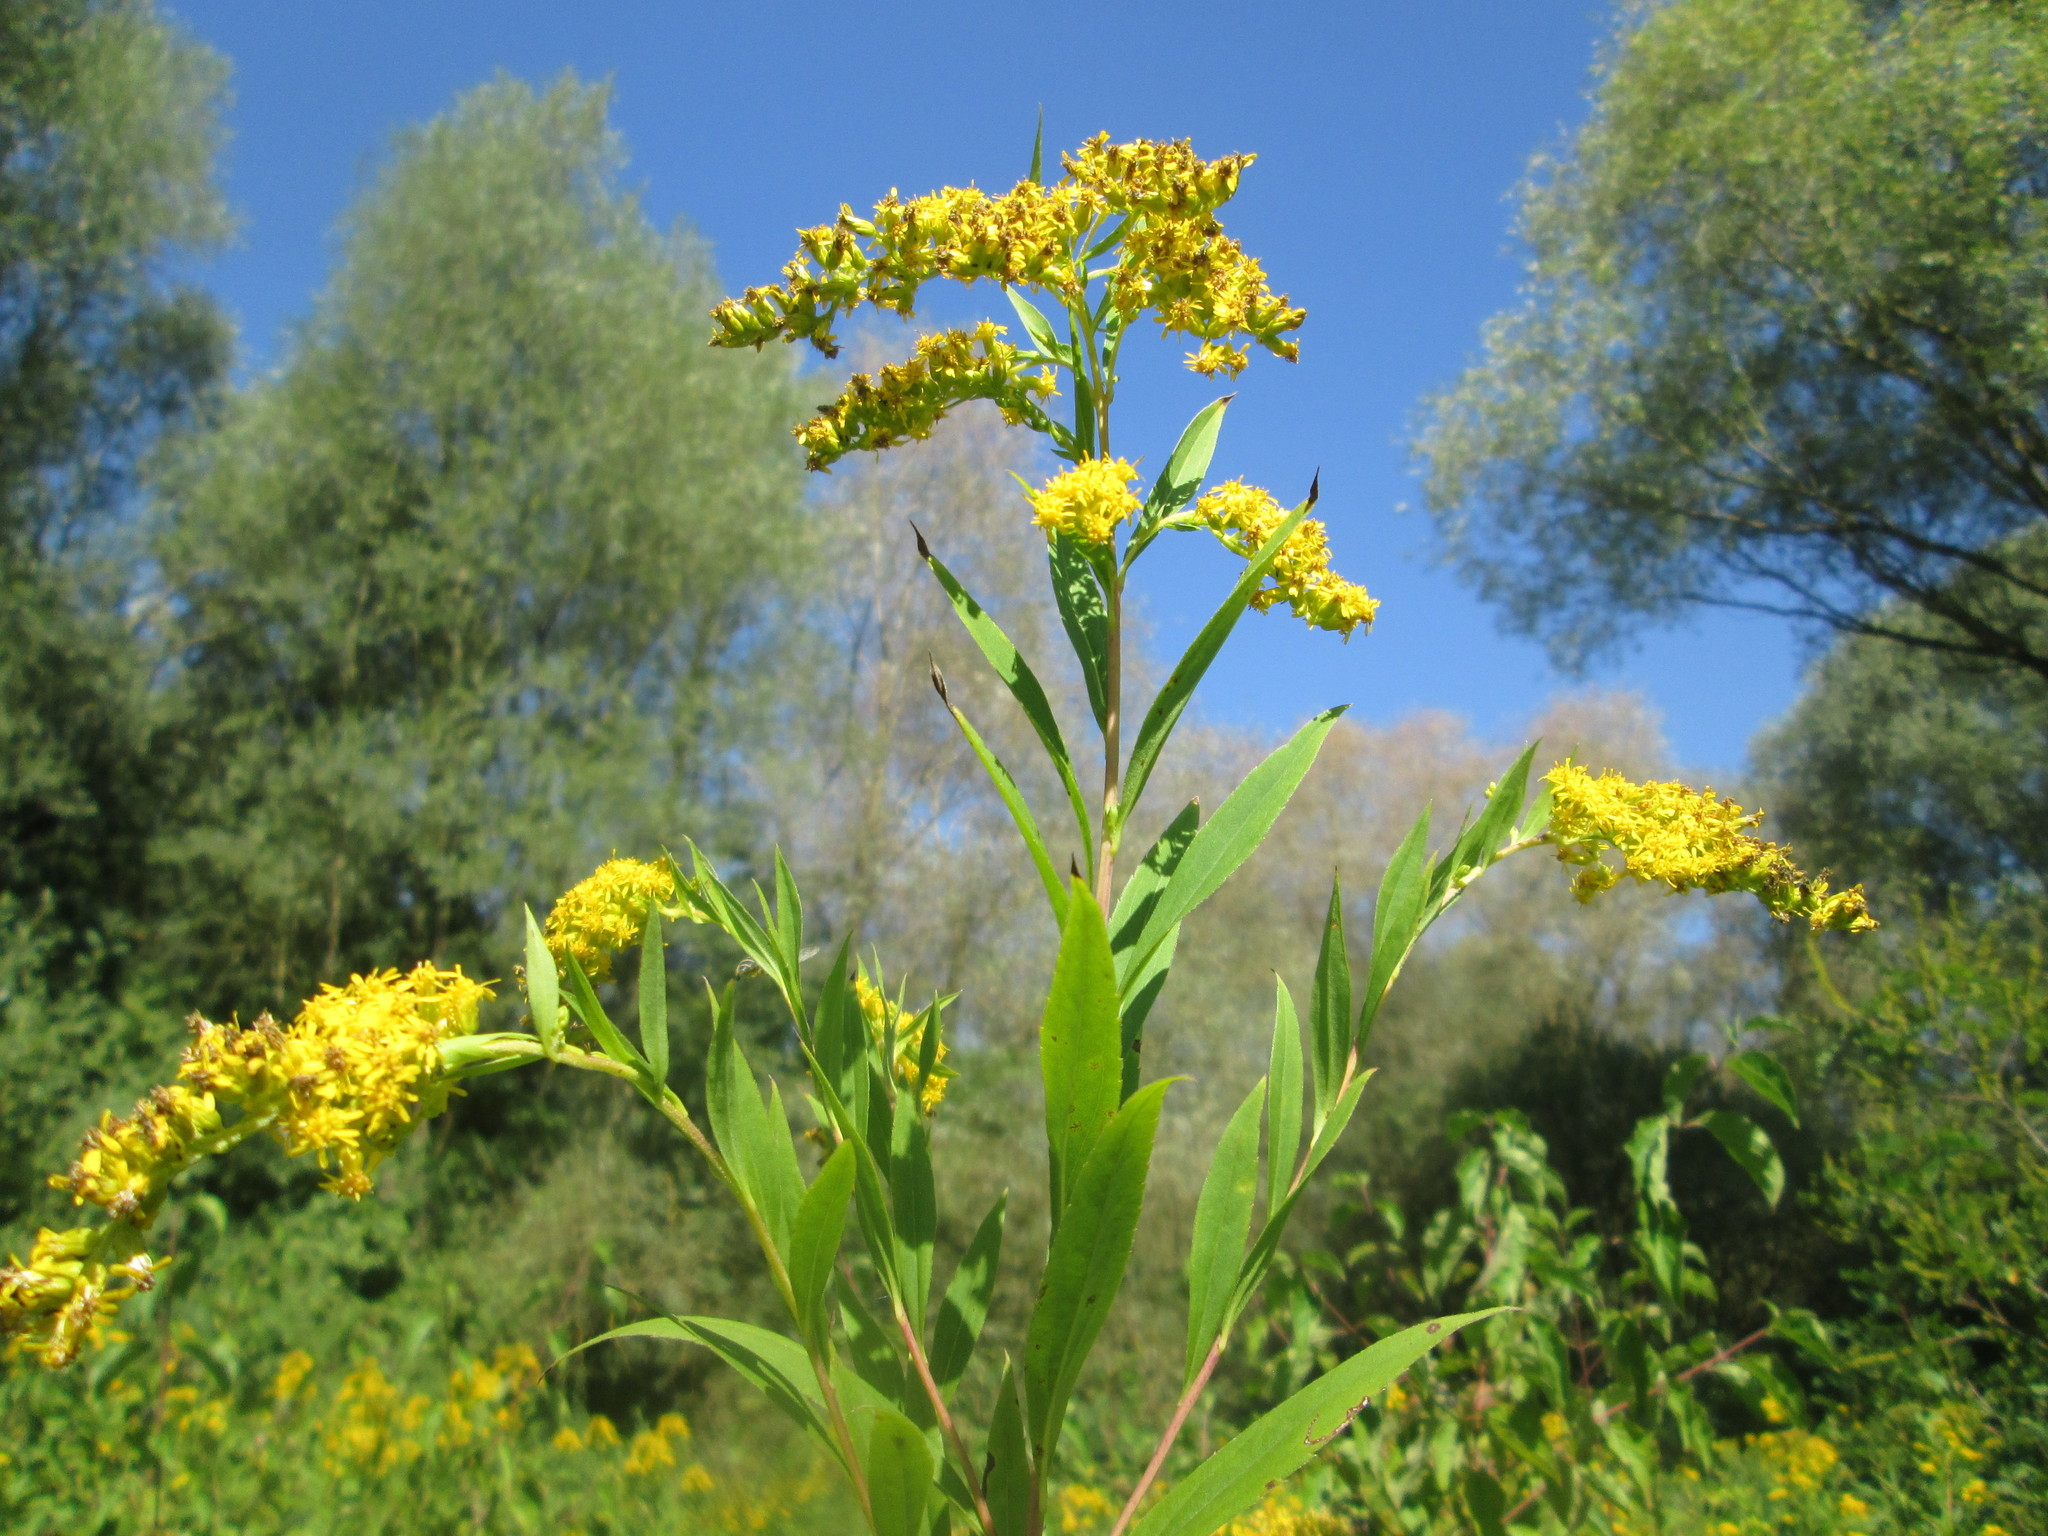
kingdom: Plantae
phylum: Tracheophyta
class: Magnoliopsida
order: Asterales
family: Asteraceae
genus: Solidago
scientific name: Solidago gigantea
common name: Giant goldenrod
